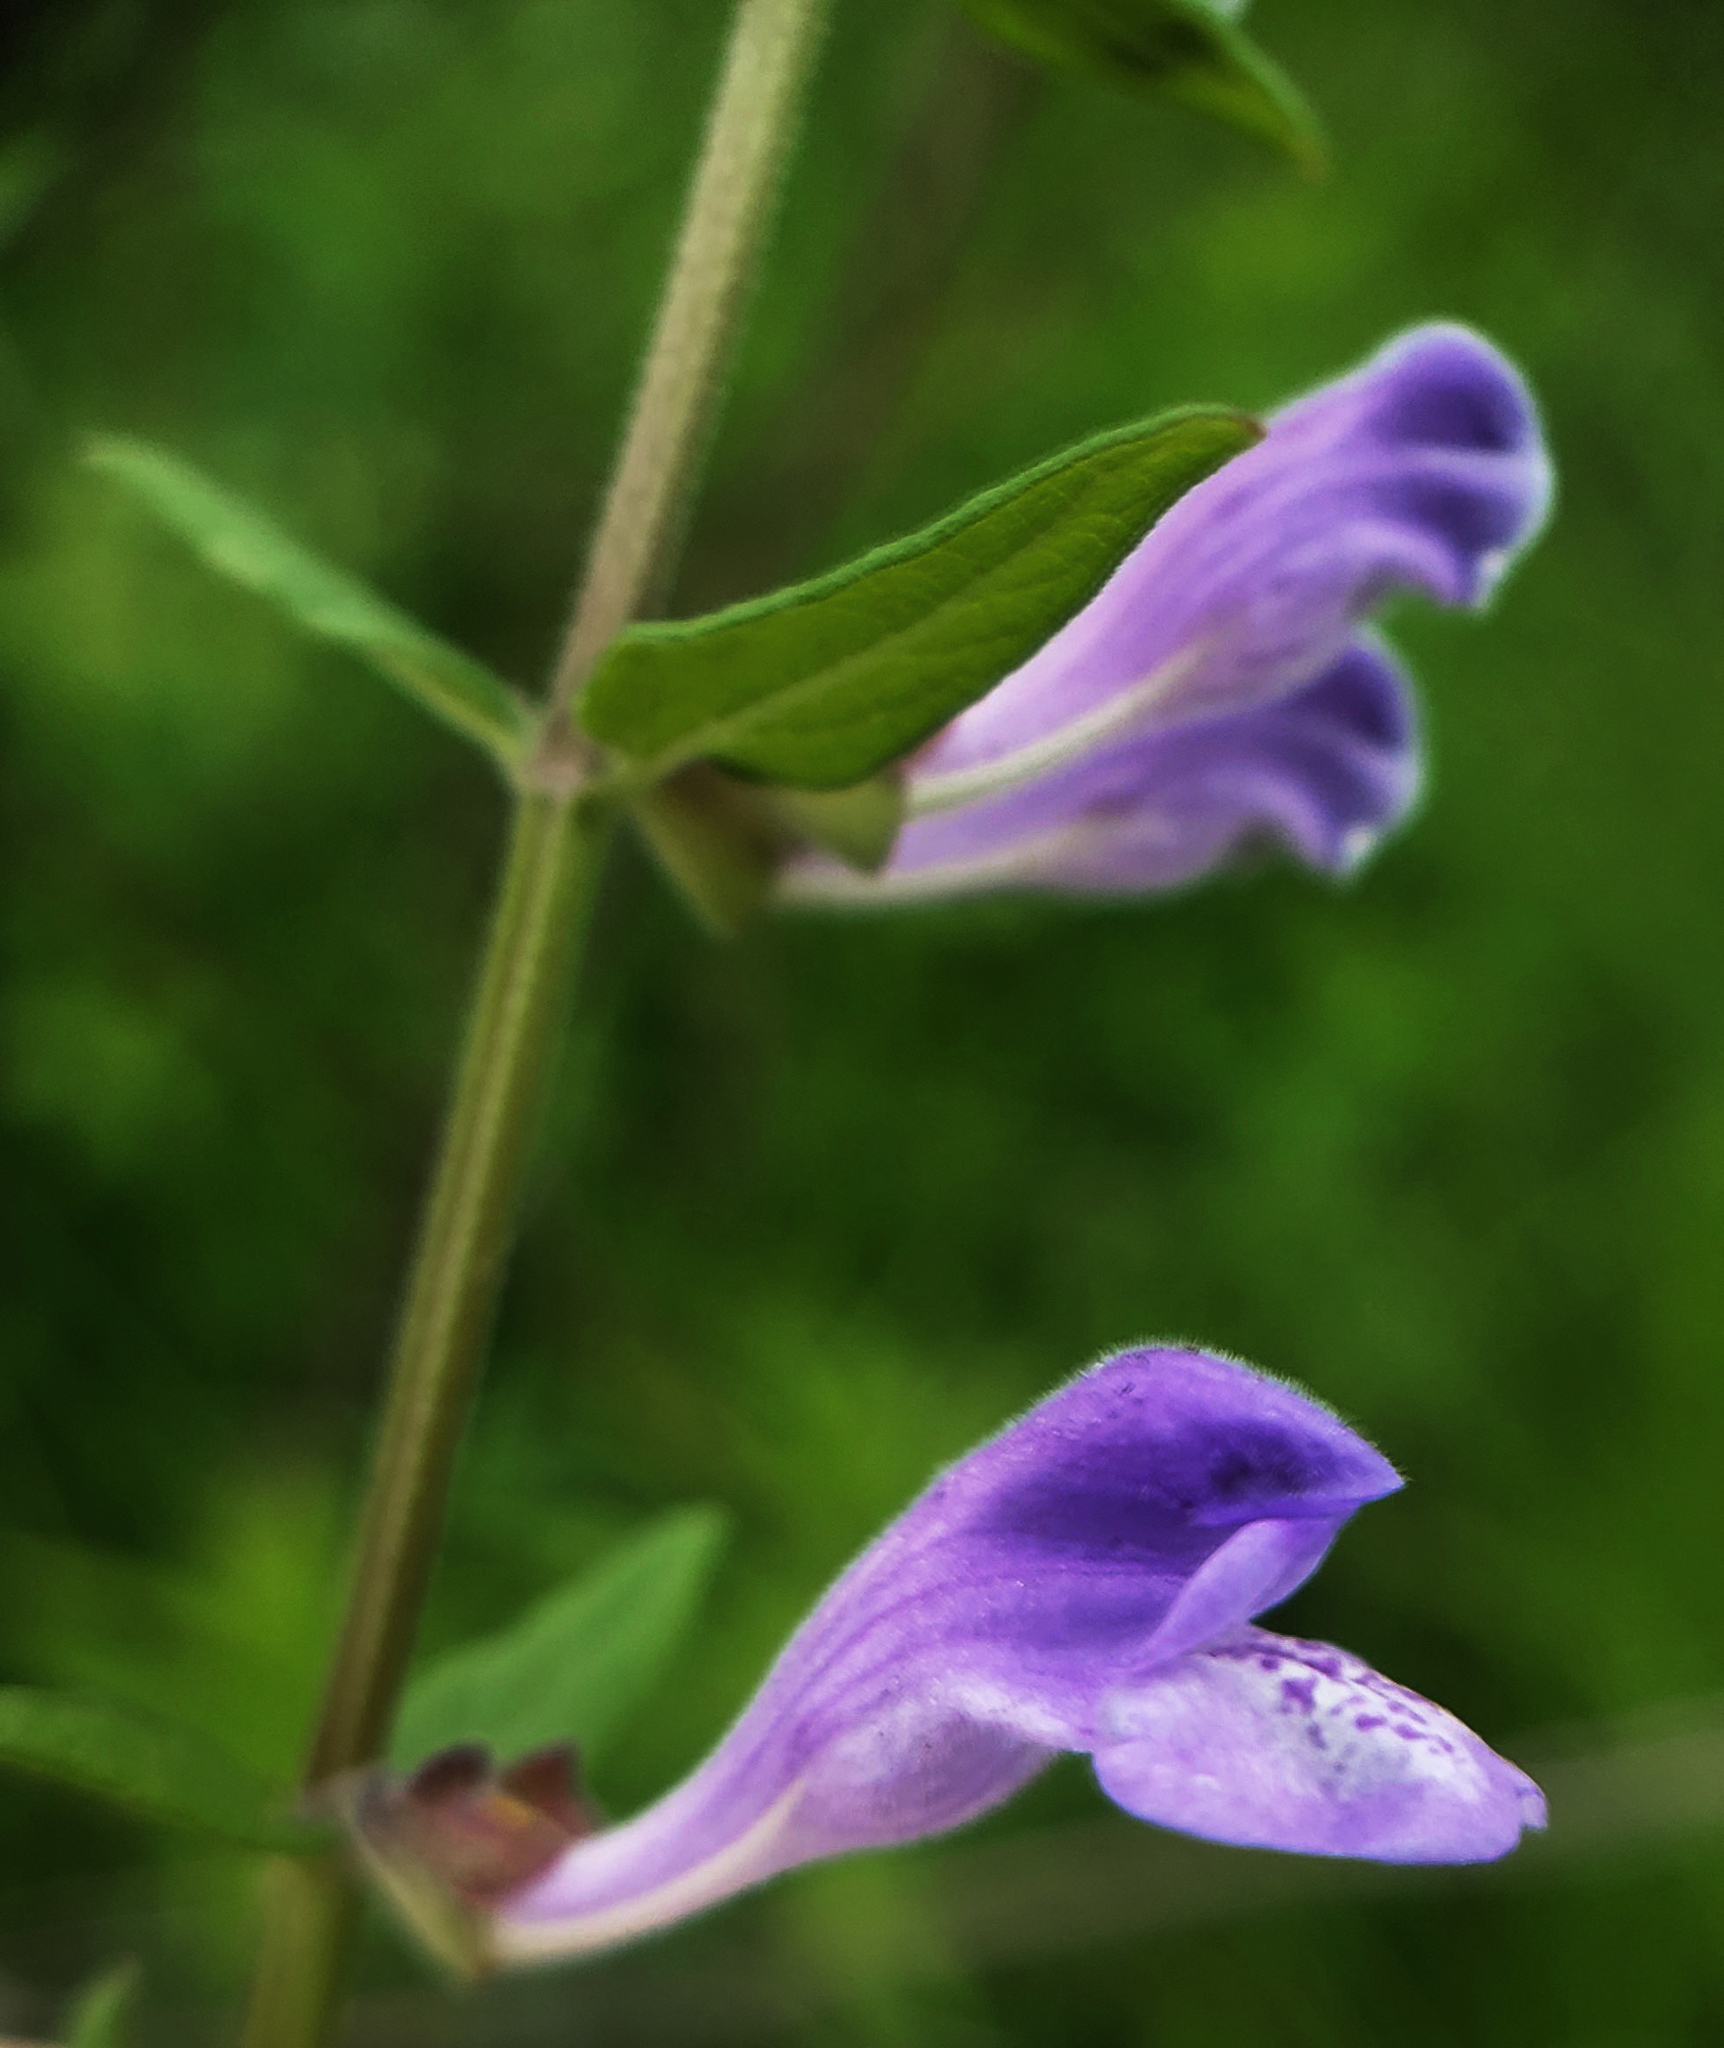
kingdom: Plantae
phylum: Tracheophyta
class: Magnoliopsida
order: Lamiales
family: Lamiaceae
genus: Scutellaria
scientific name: Scutellaria galericulata
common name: Skullcap
